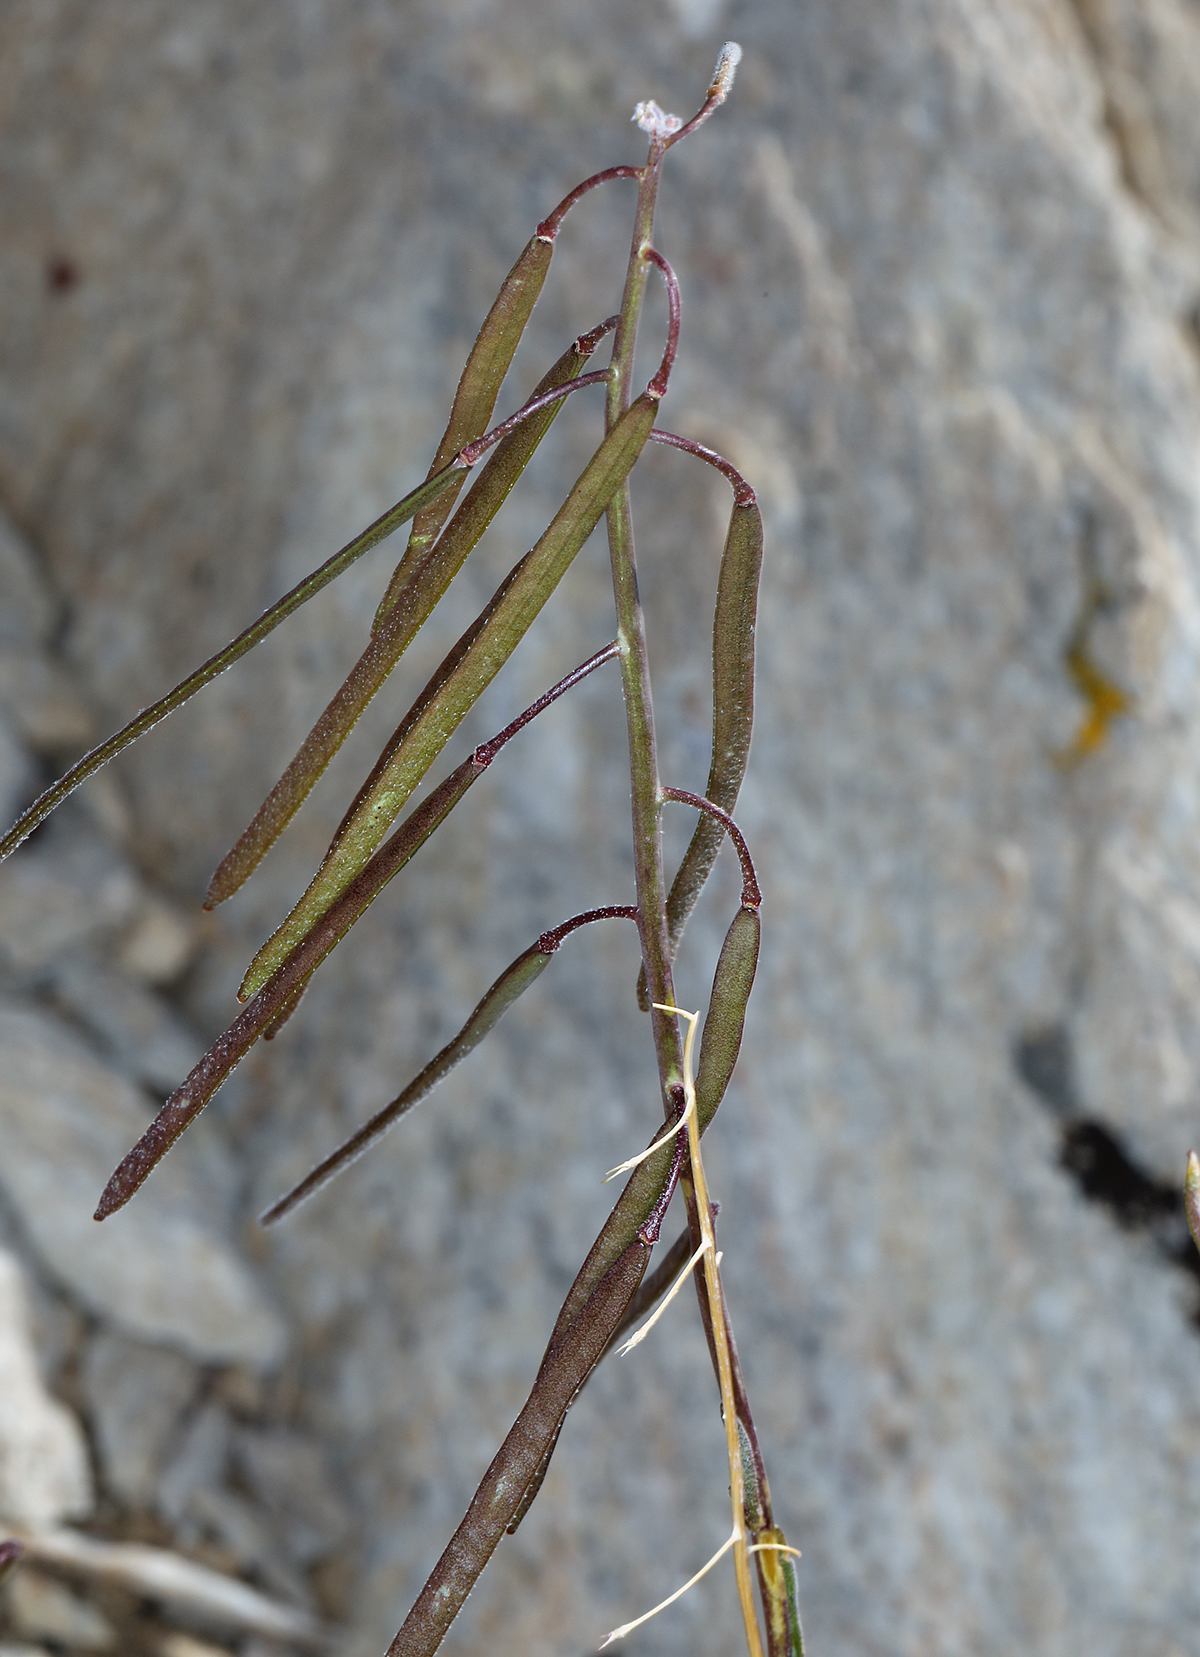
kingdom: Plantae
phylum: Tracheophyta
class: Magnoliopsida
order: Brassicales
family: Brassicaceae
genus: Boechera
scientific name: Boechera xylopoda
